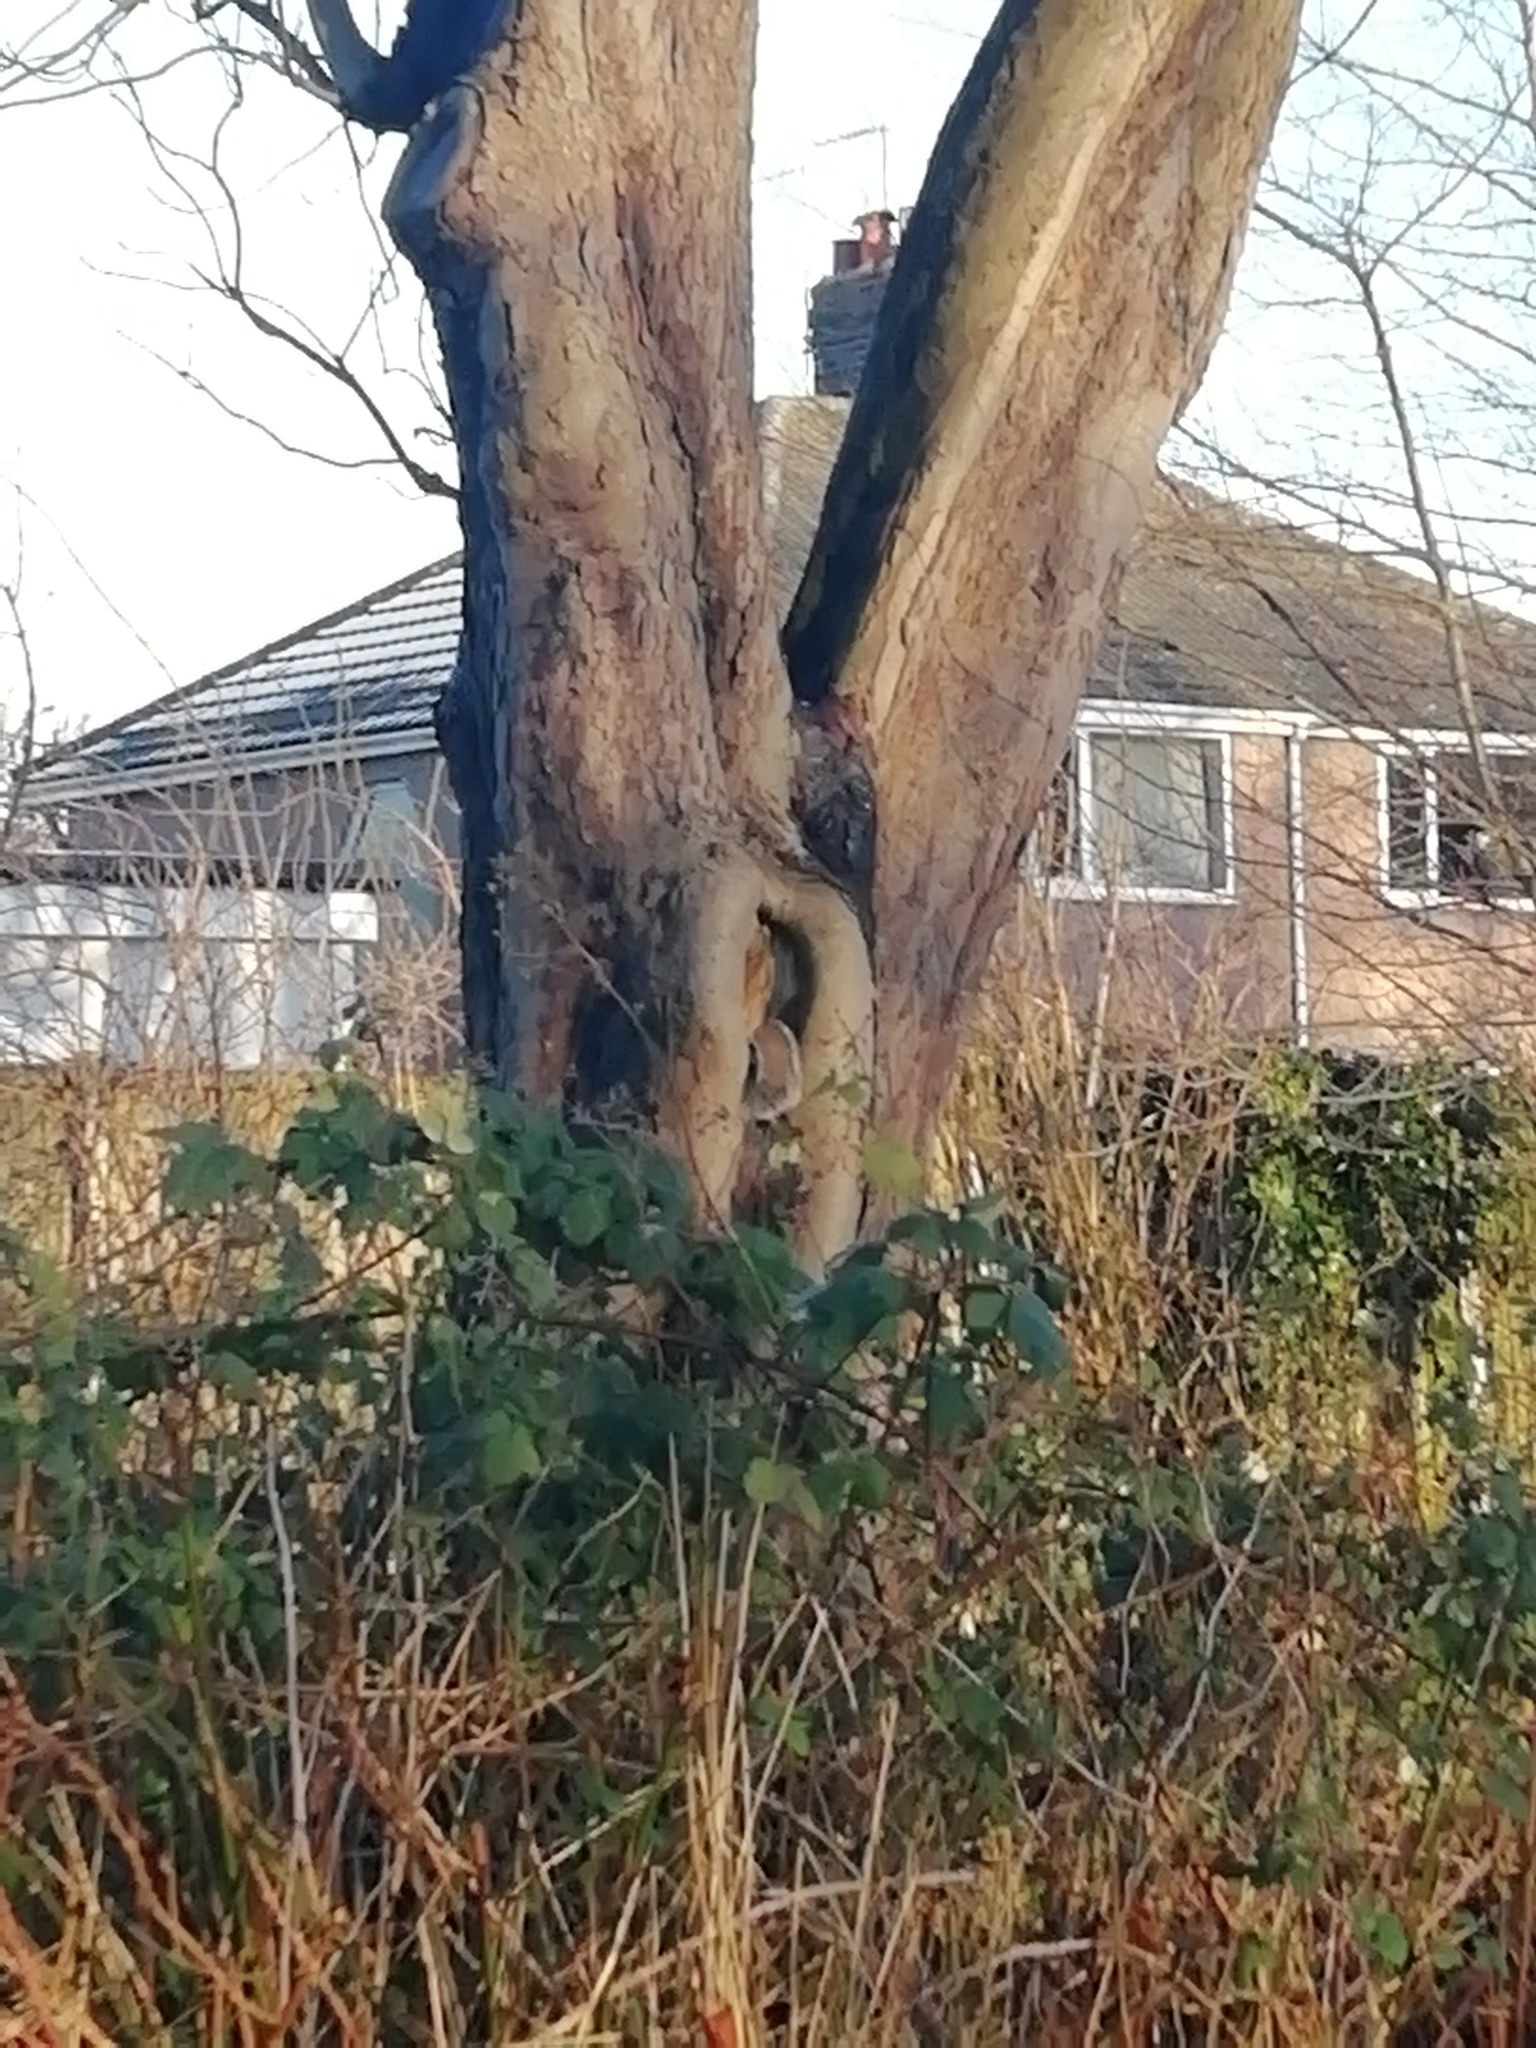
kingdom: Animalia
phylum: Chordata
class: Mammalia
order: Rodentia
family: Sciuridae
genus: Sciurus
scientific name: Sciurus carolinensis
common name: Eastern gray squirrel
